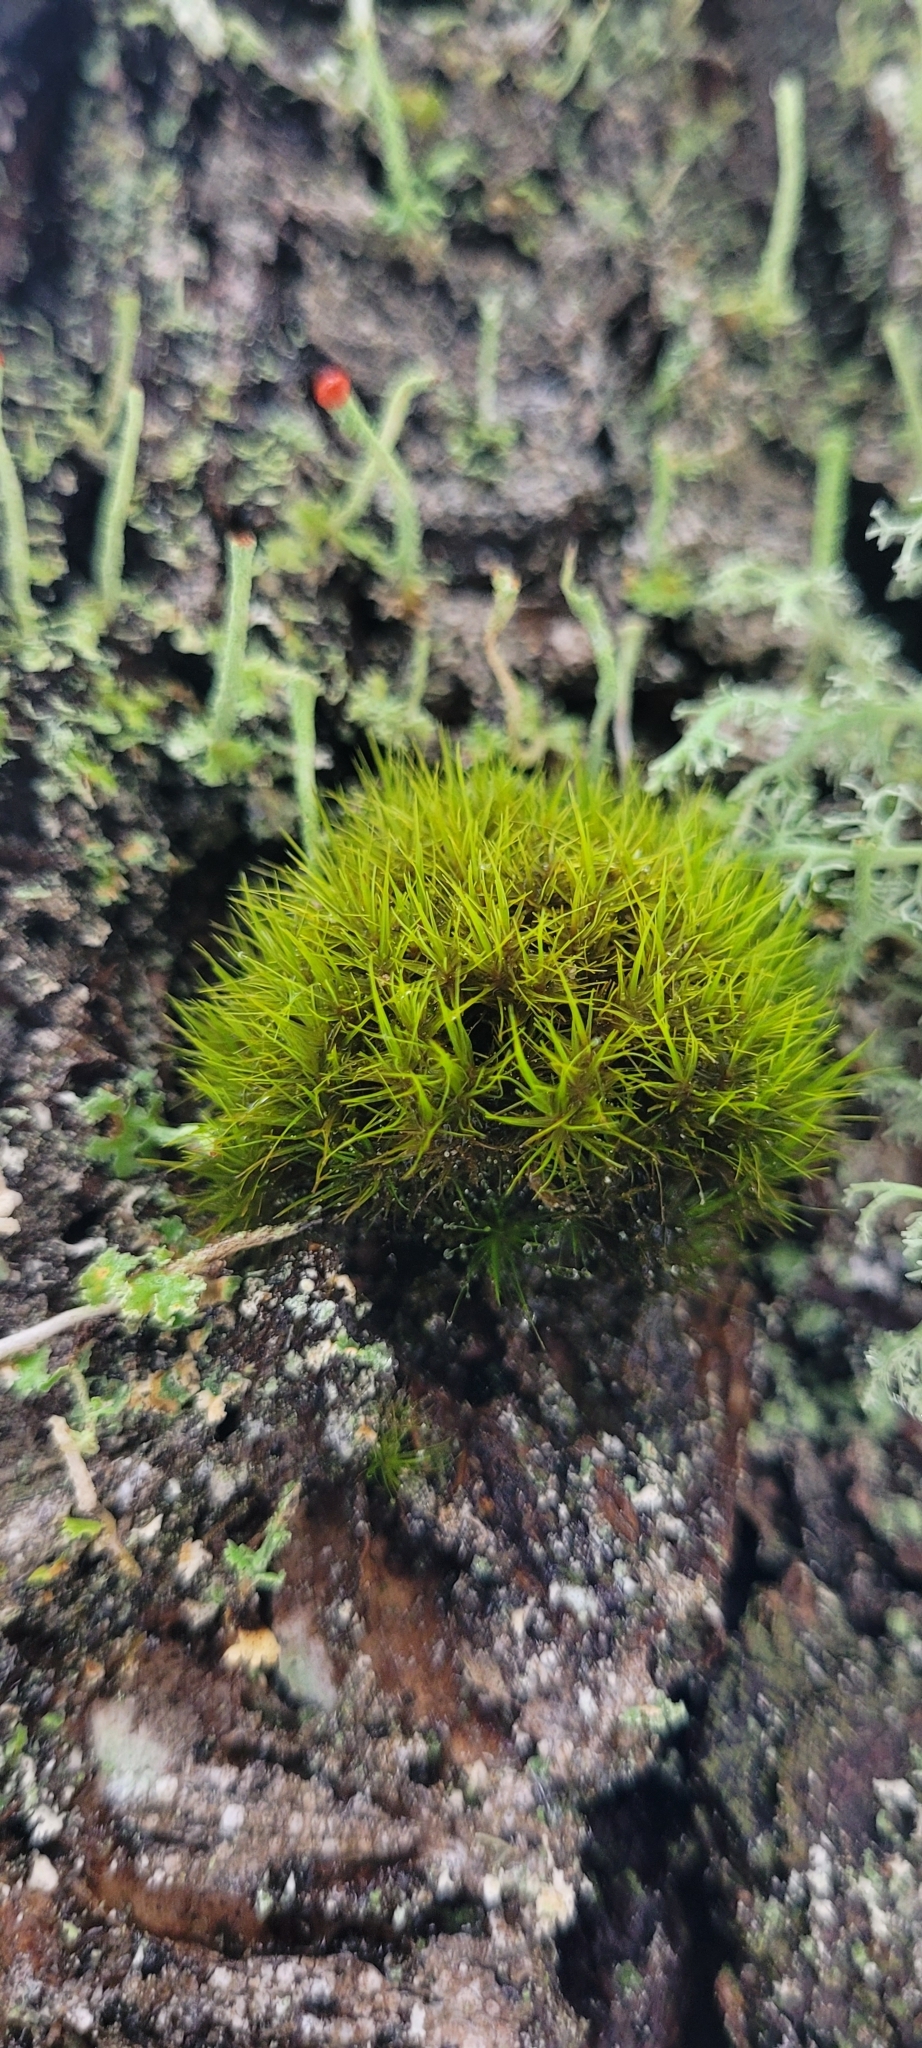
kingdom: Plantae
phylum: Bryophyta
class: Bryopsida
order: Dicranales
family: Dicranaceae
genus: Orthodicranum
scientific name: Orthodicranum tauricum
